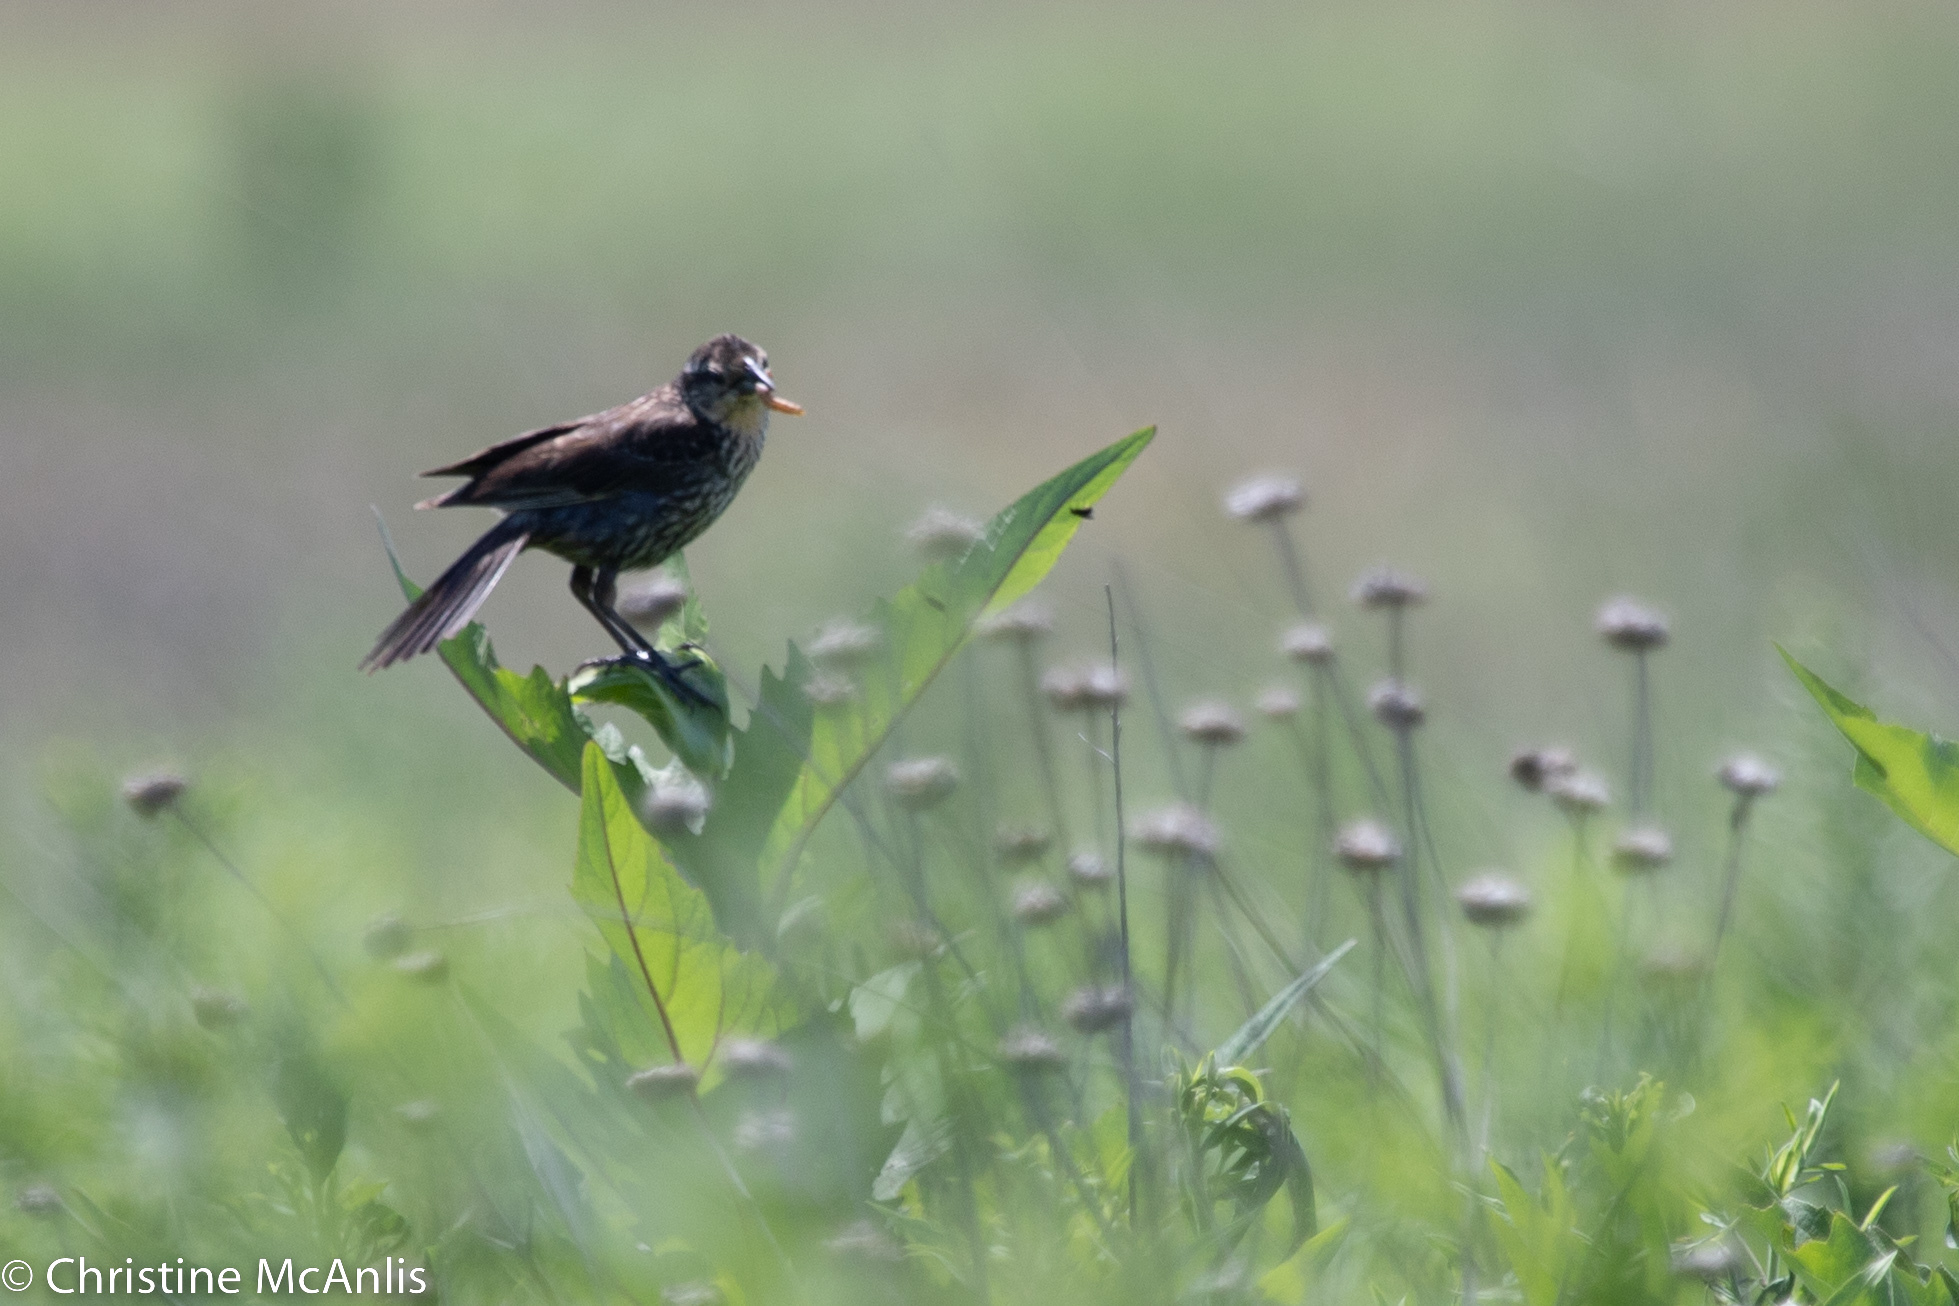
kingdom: Animalia
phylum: Chordata
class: Aves
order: Passeriformes
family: Icteridae
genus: Agelaius
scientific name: Agelaius phoeniceus
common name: Red-winged blackbird
